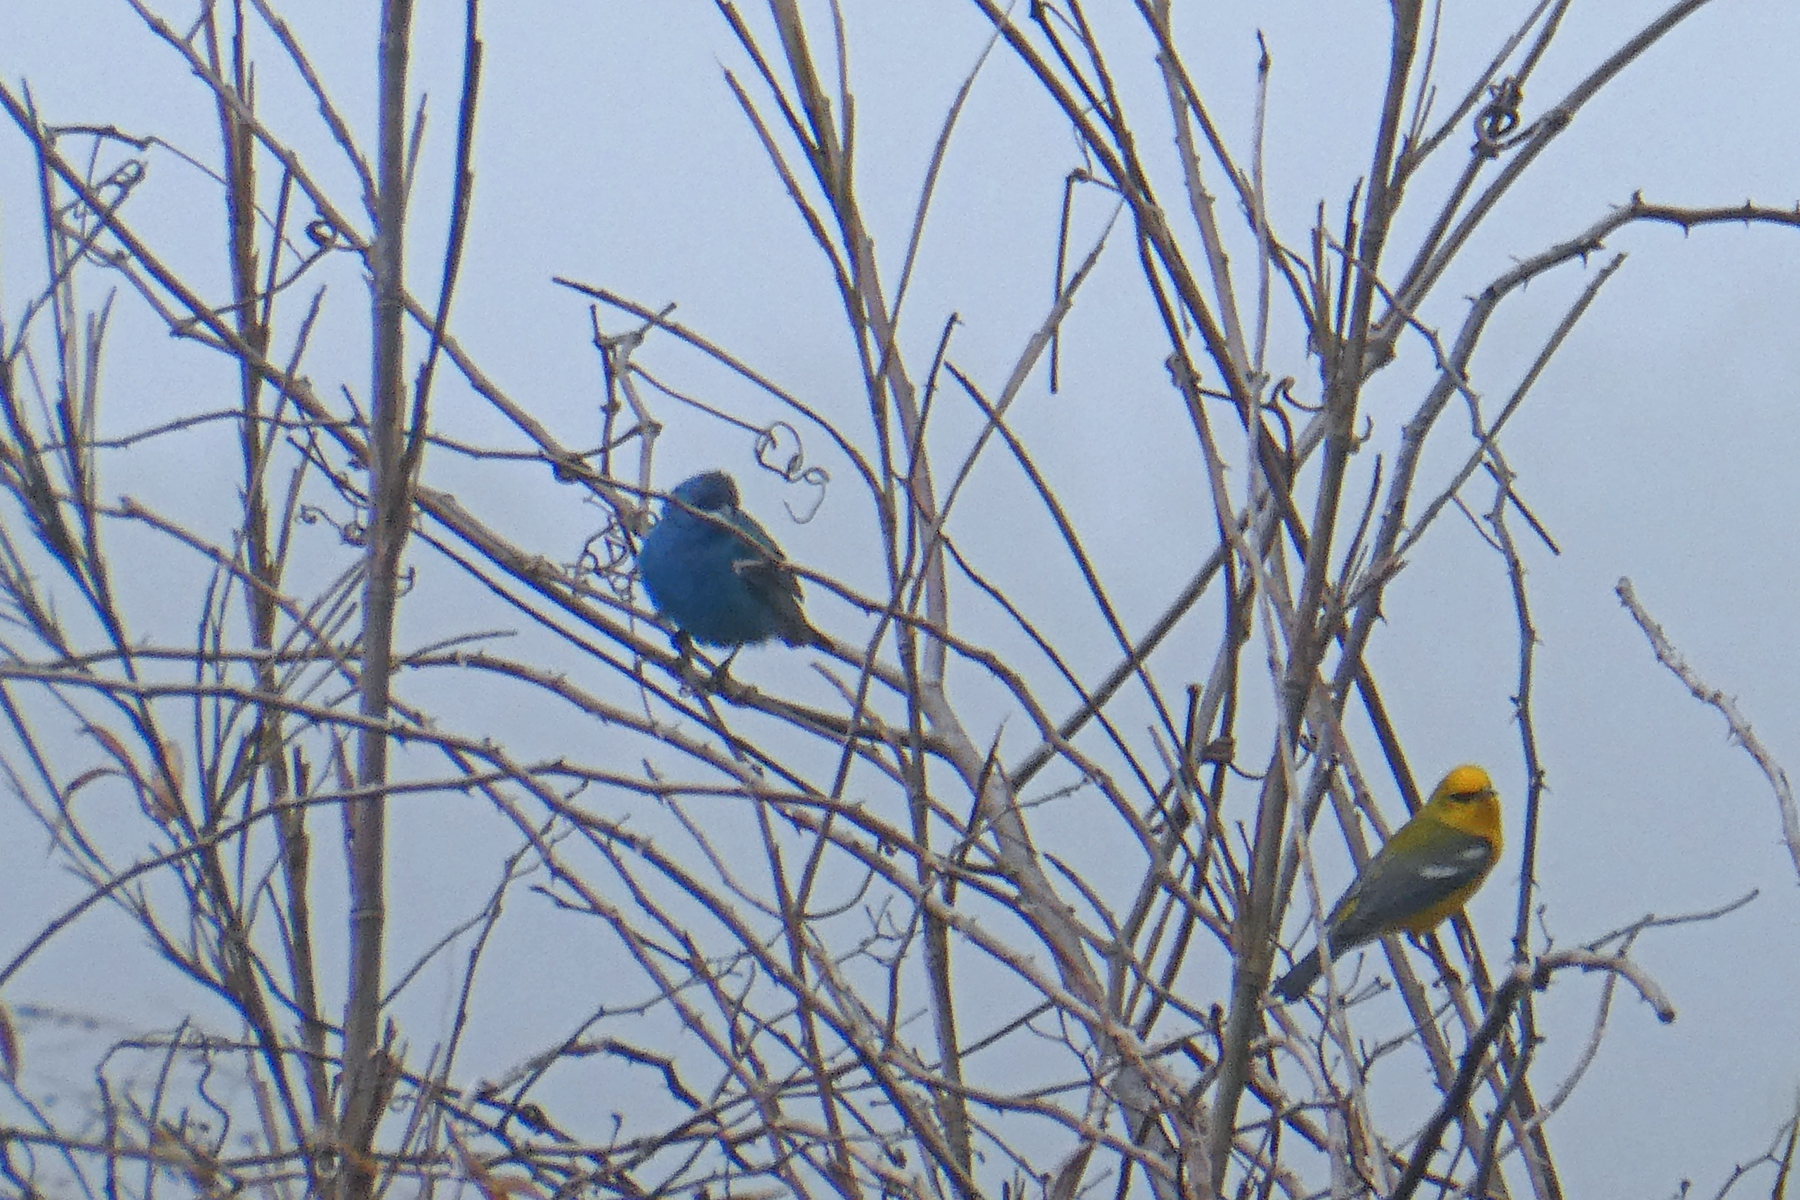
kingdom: Animalia
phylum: Chordata
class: Aves
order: Passeriformes
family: Parulidae
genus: Vermivora
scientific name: Vermivora cyanoptera
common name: Blue-winged warbler
